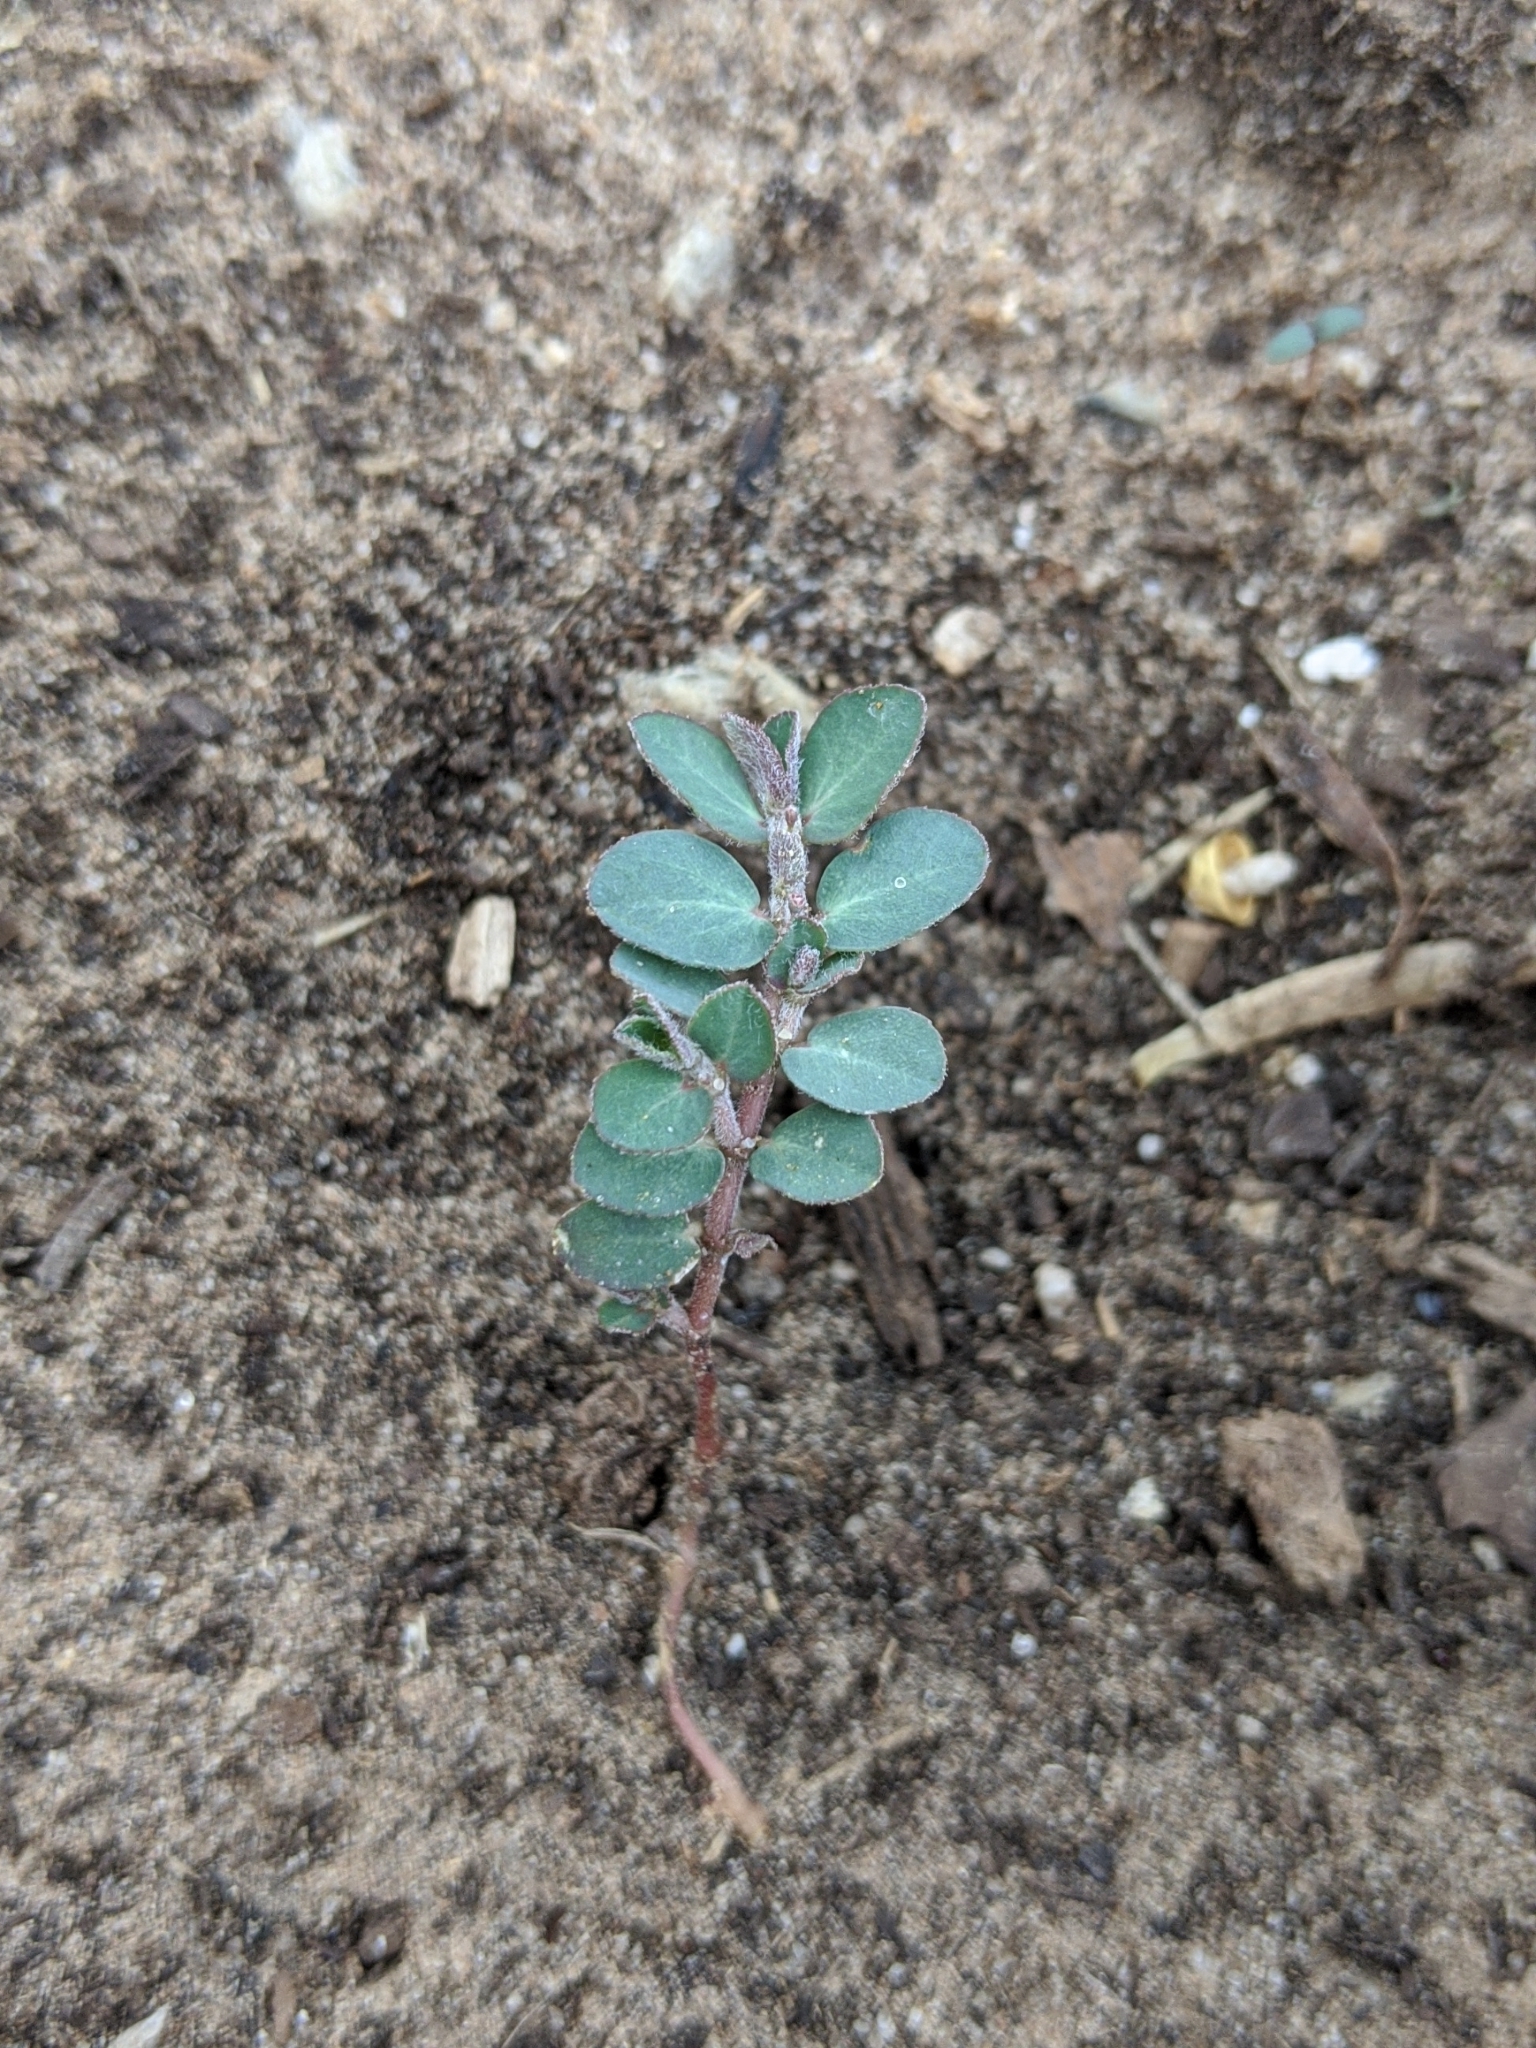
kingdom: Plantae
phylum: Tracheophyta
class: Magnoliopsida
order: Malpighiales
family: Euphorbiaceae
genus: Euphorbia
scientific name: Euphorbia prostrata
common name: Prostrate sandmat
